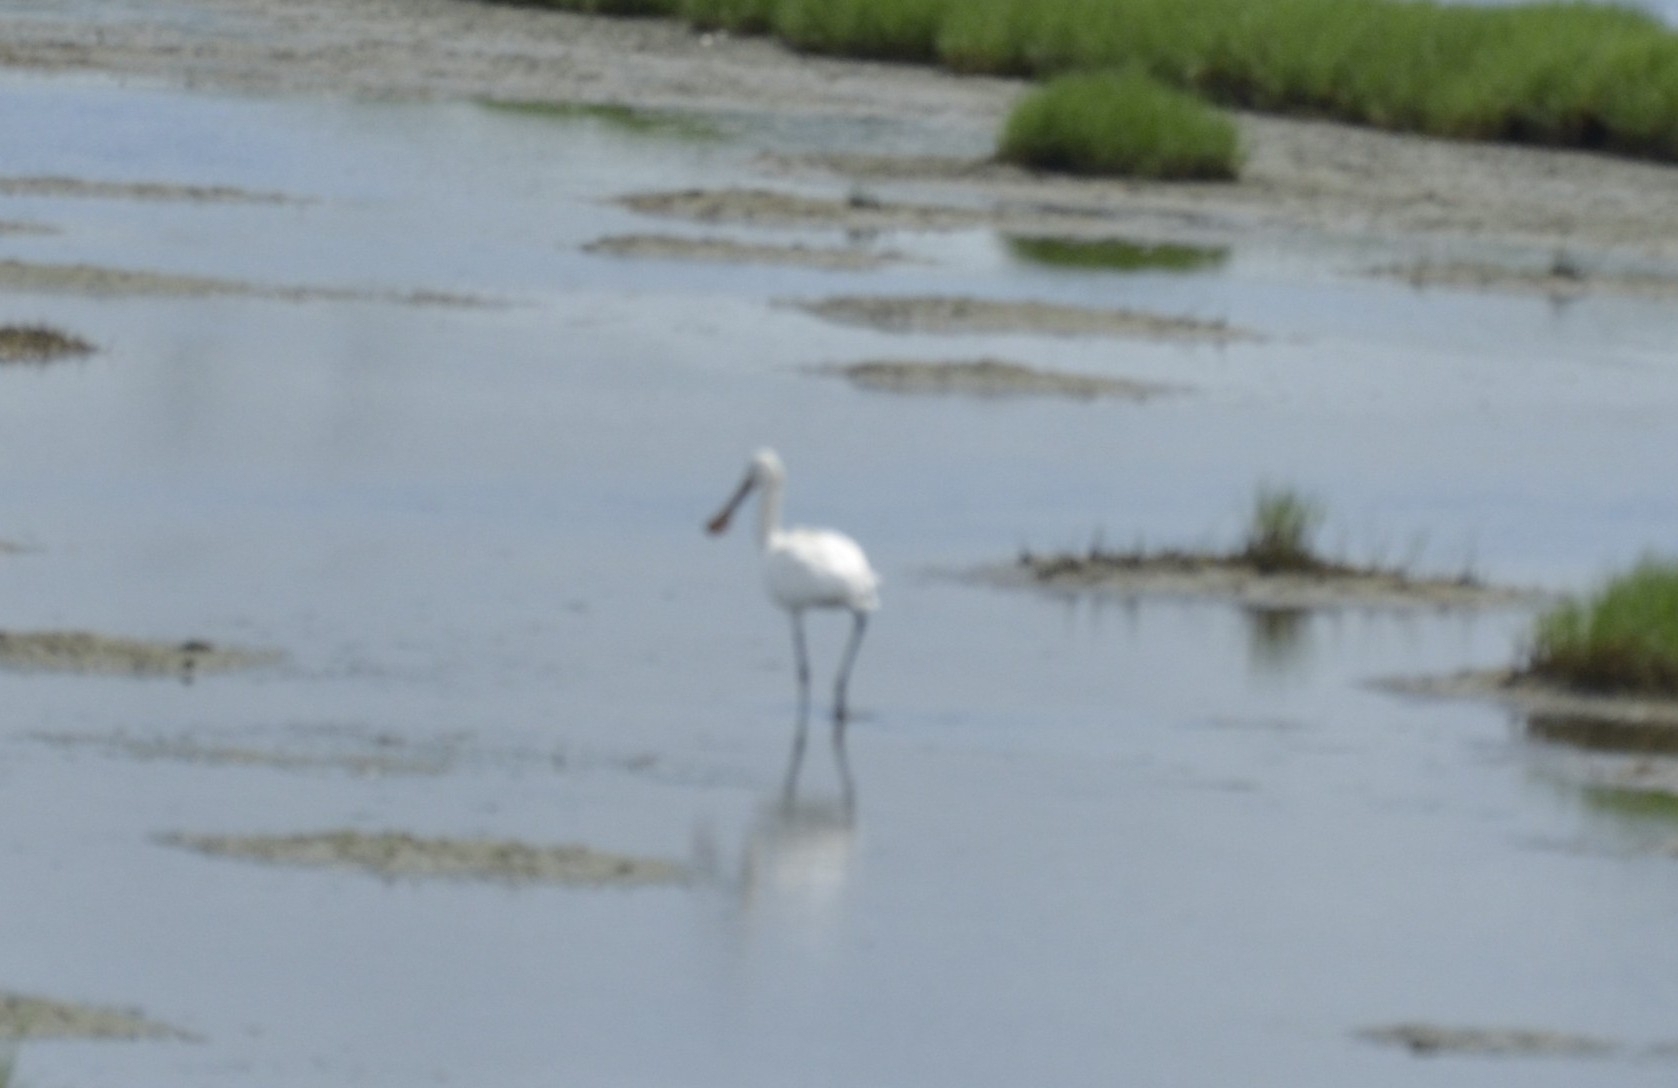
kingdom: Animalia
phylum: Chordata
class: Aves
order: Pelecaniformes
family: Threskiornithidae
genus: Platalea
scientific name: Platalea leucorodia
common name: Eurasian spoonbill
